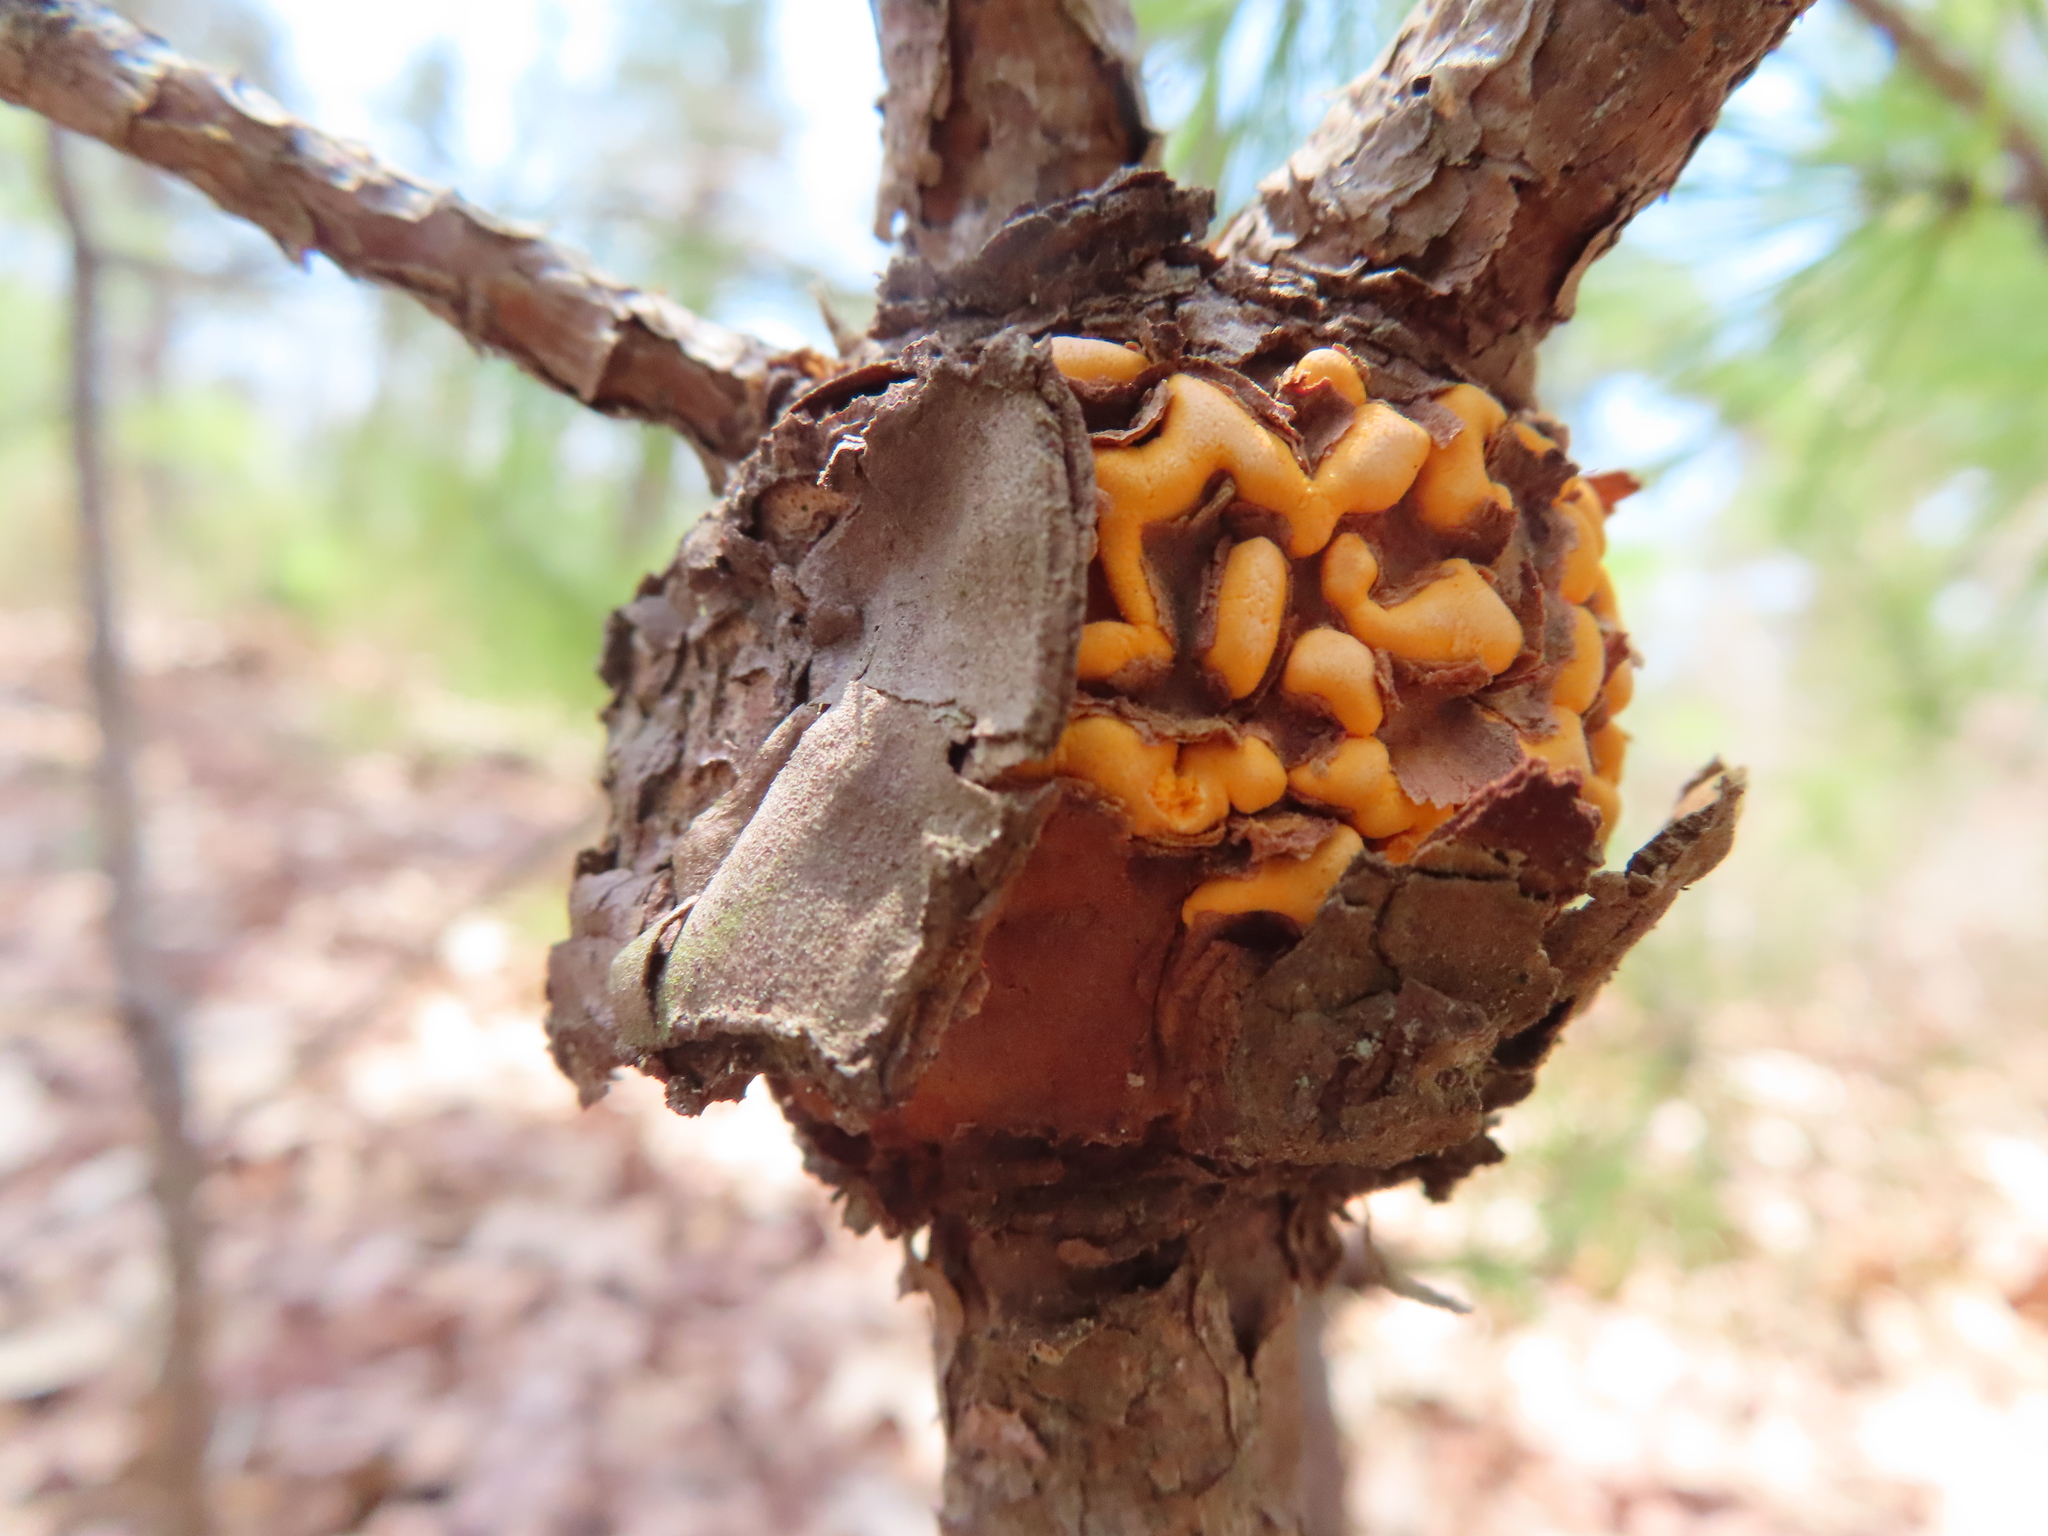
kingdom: Fungi
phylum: Basidiomycota
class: Pucciniomycetes
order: Pucciniales
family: Cronartiaceae
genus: Cronartium
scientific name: Cronartium quercuum
